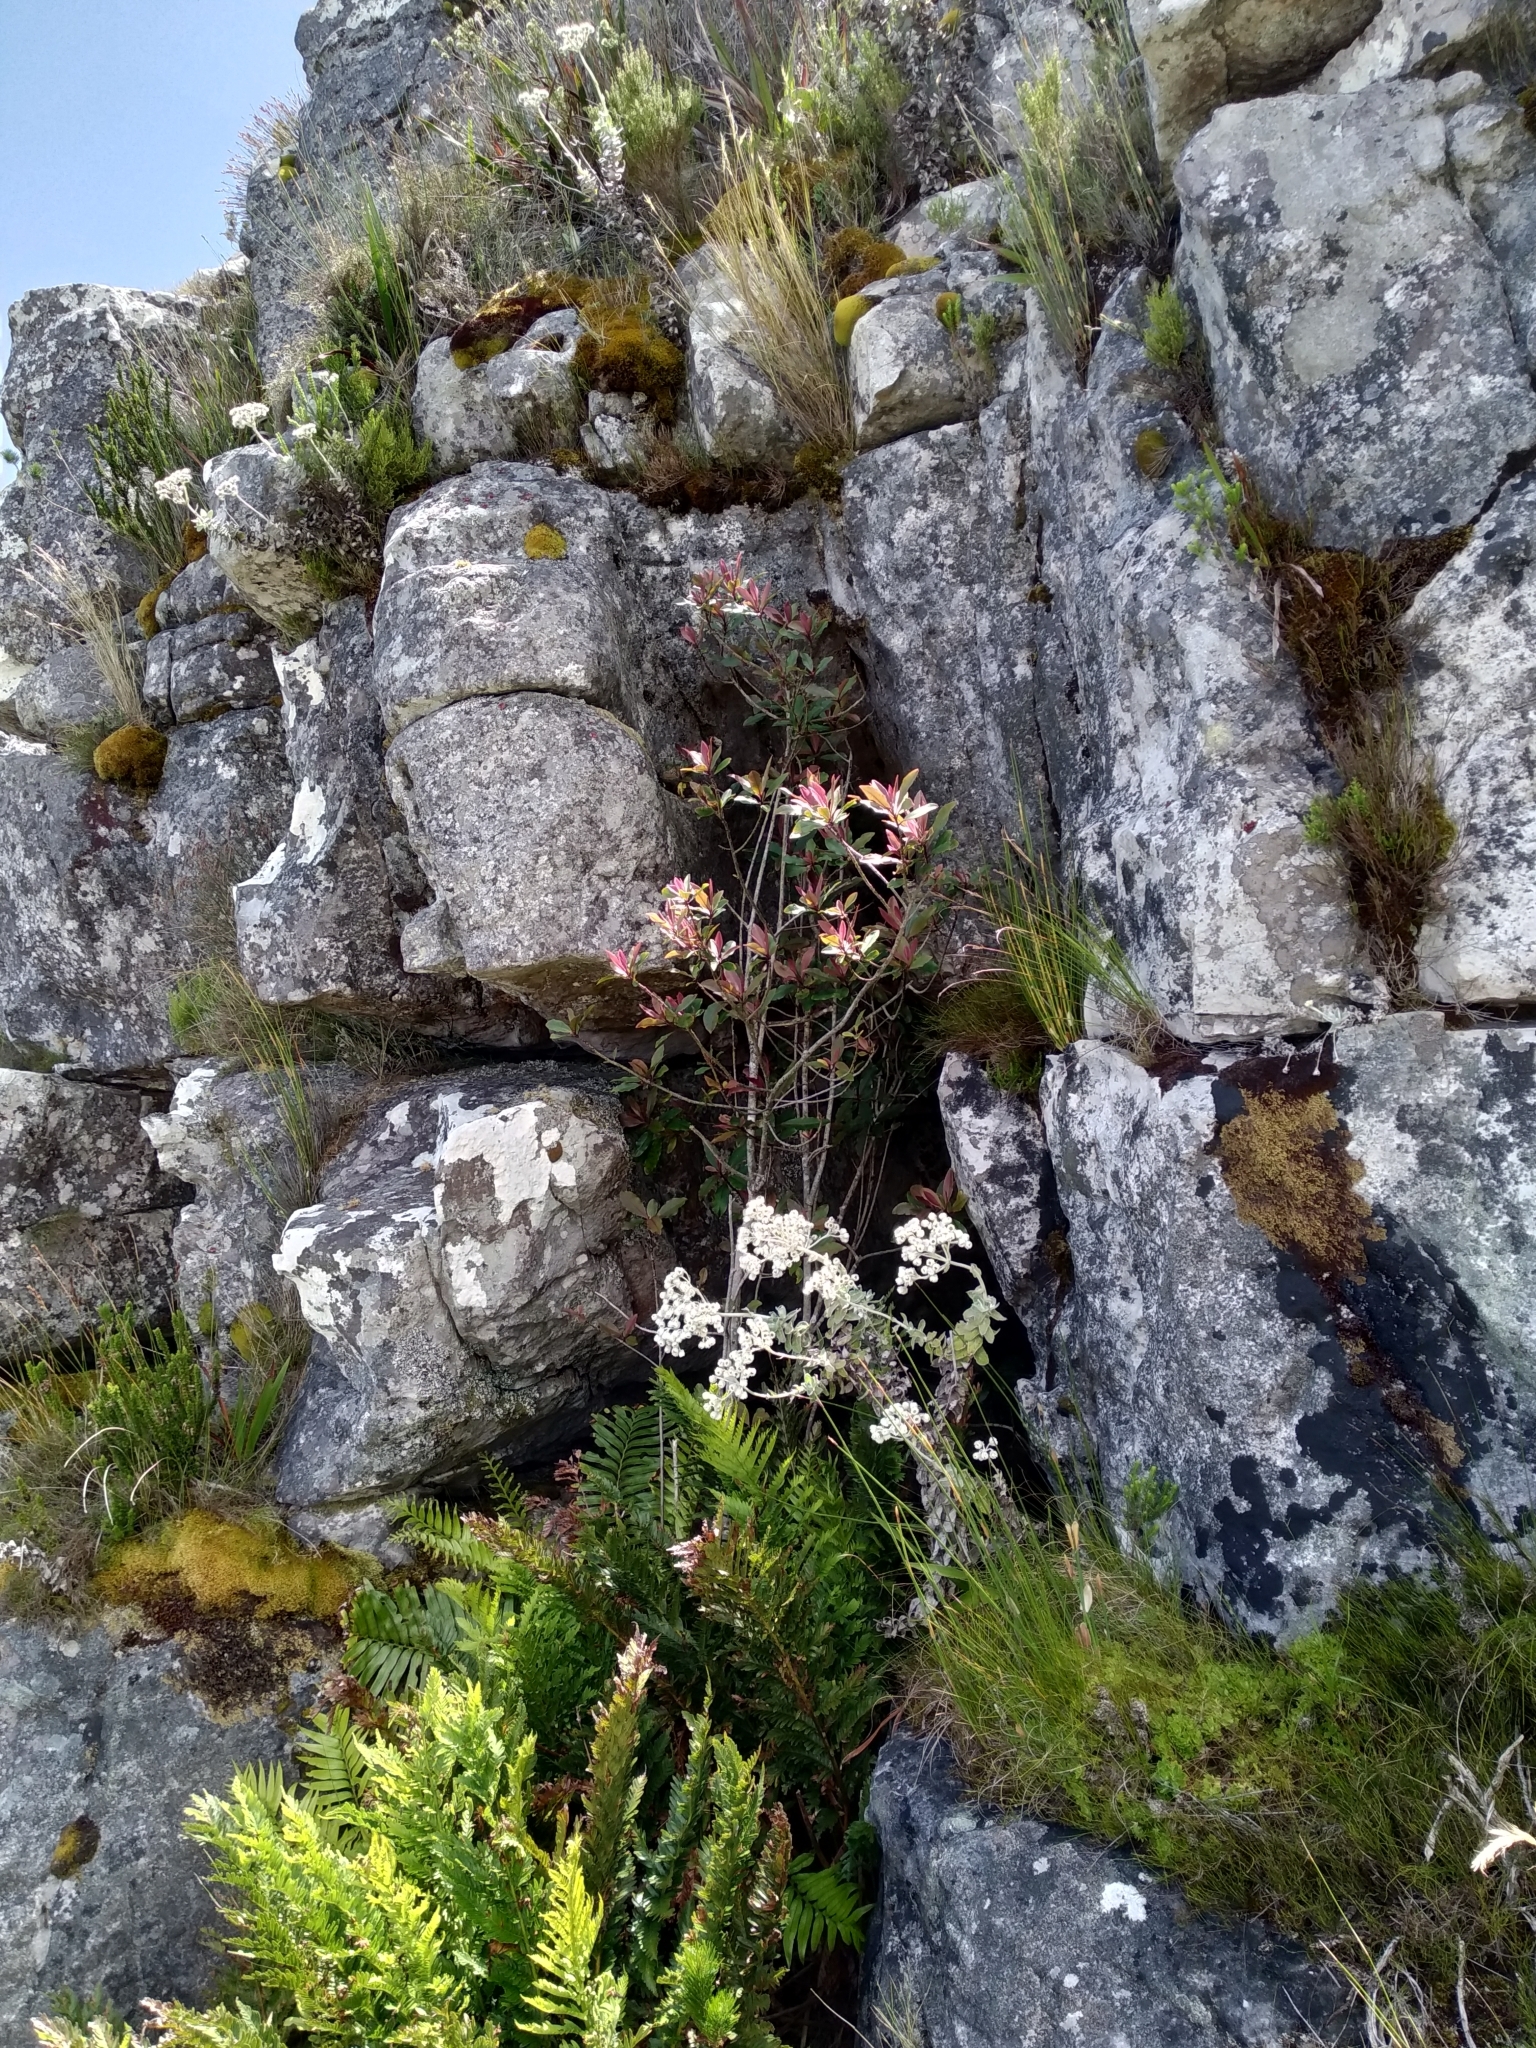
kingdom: Plantae
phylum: Tracheophyta
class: Magnoliopsida
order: Ericales
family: Primulaceae
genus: Myrsine
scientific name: Myrsine melanophloeos
